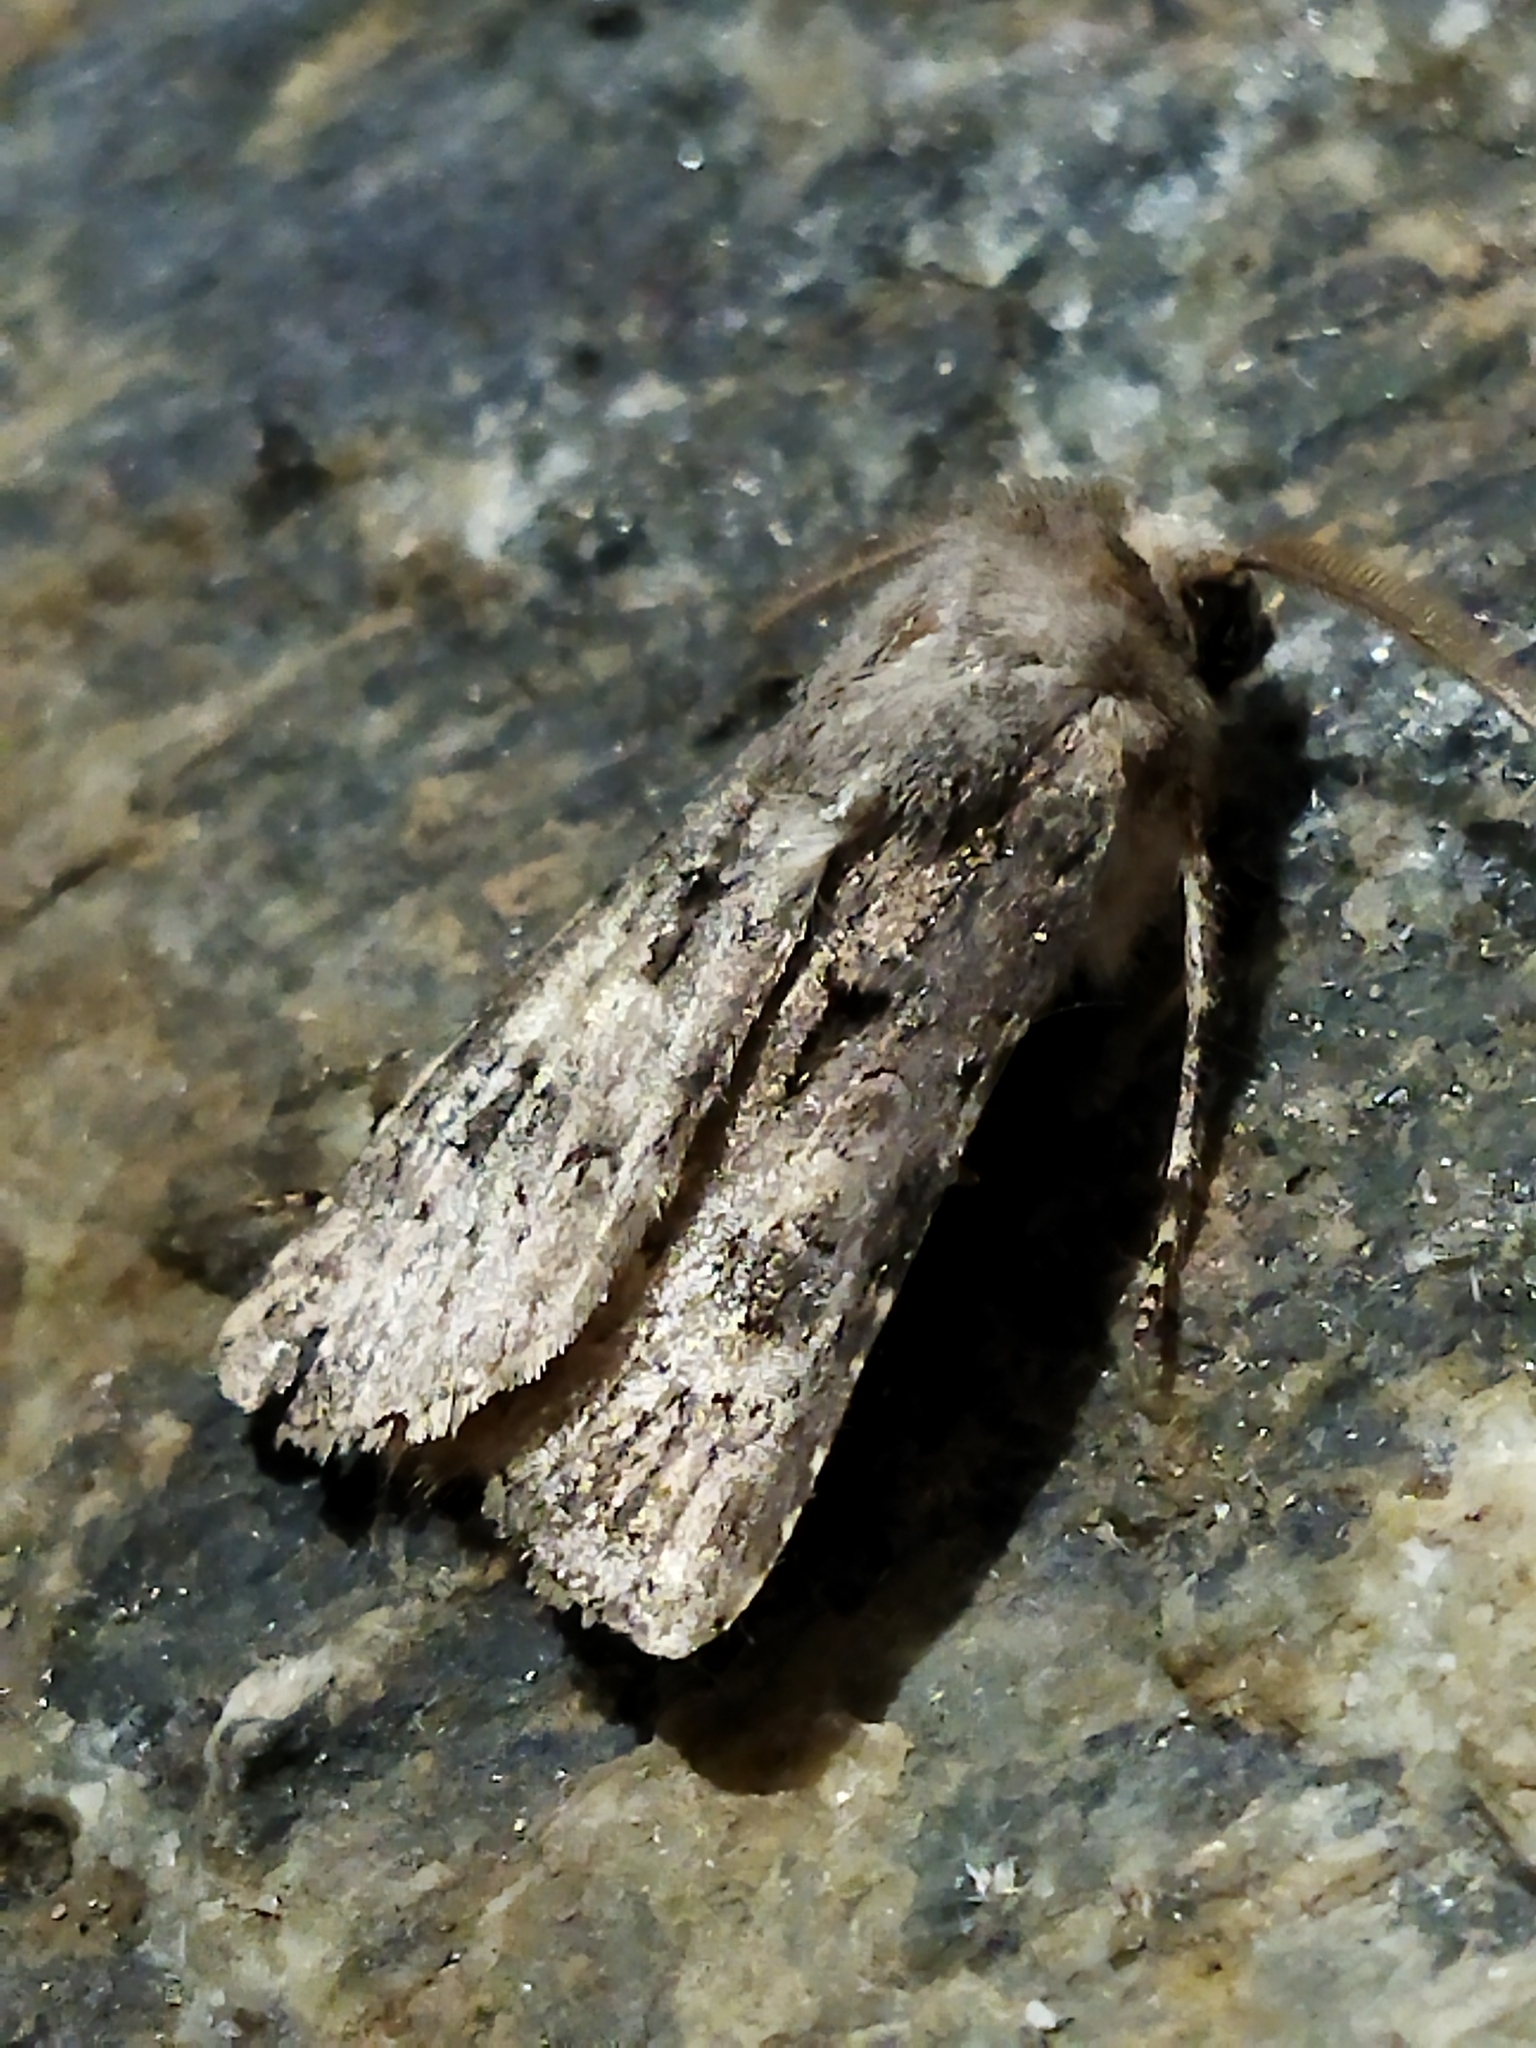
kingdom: Animalia
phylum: Arthropoda
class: Insecta
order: Lepidoptera
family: Noctuidae
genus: Agrotis
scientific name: Agrotis bigramma
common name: Great dart
